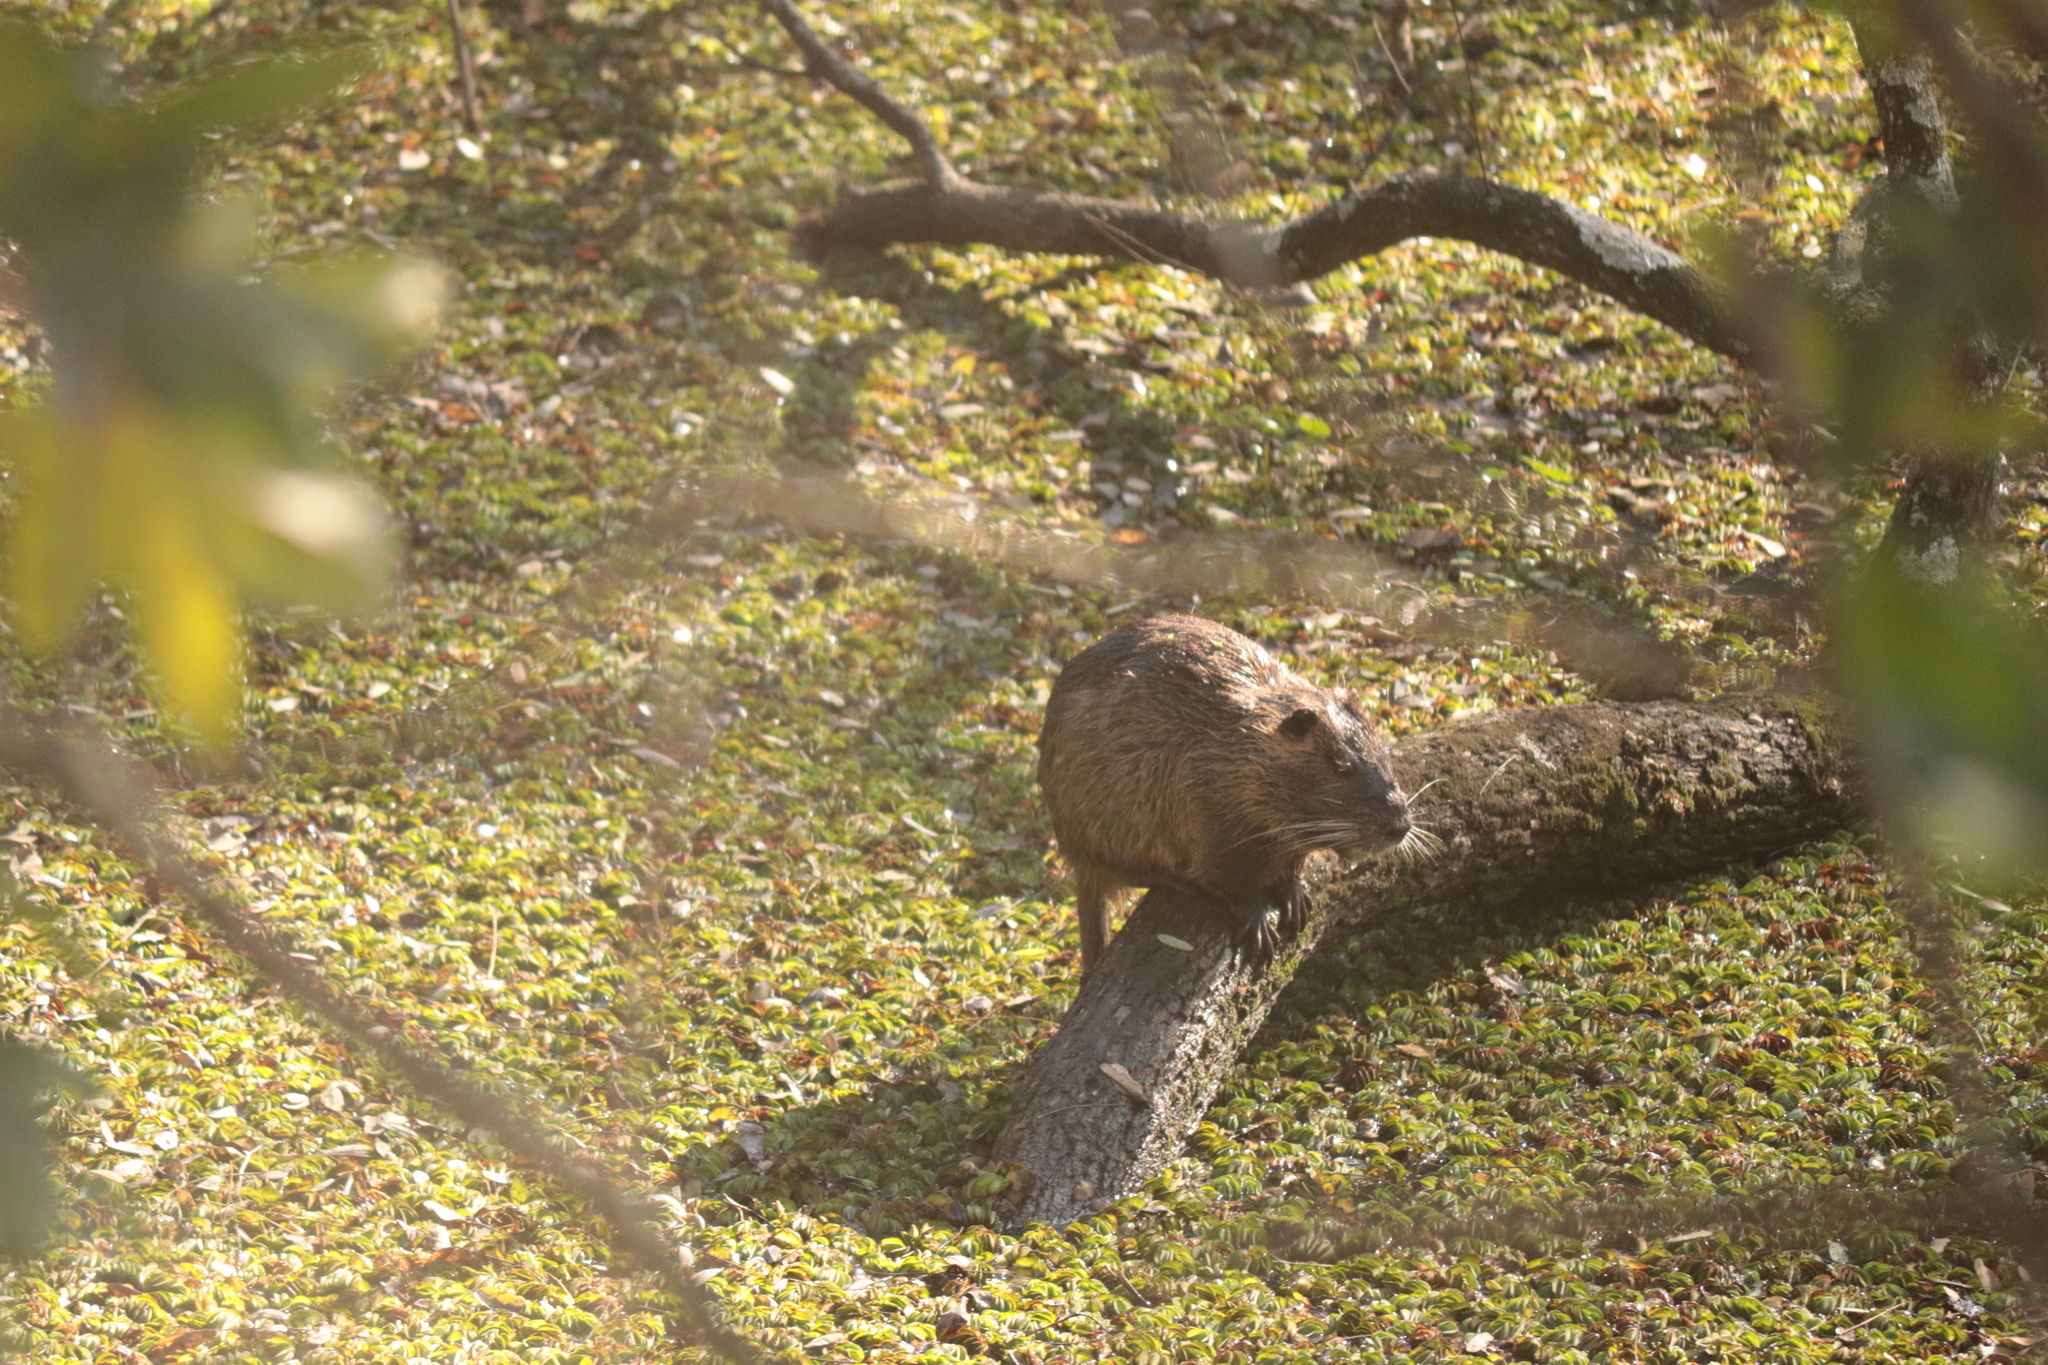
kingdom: Animalia
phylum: Chordata
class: Mammalia
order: Rodentia
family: Myocastoridae
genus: Myocastor
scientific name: Myocastor coypus
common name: Coypu
